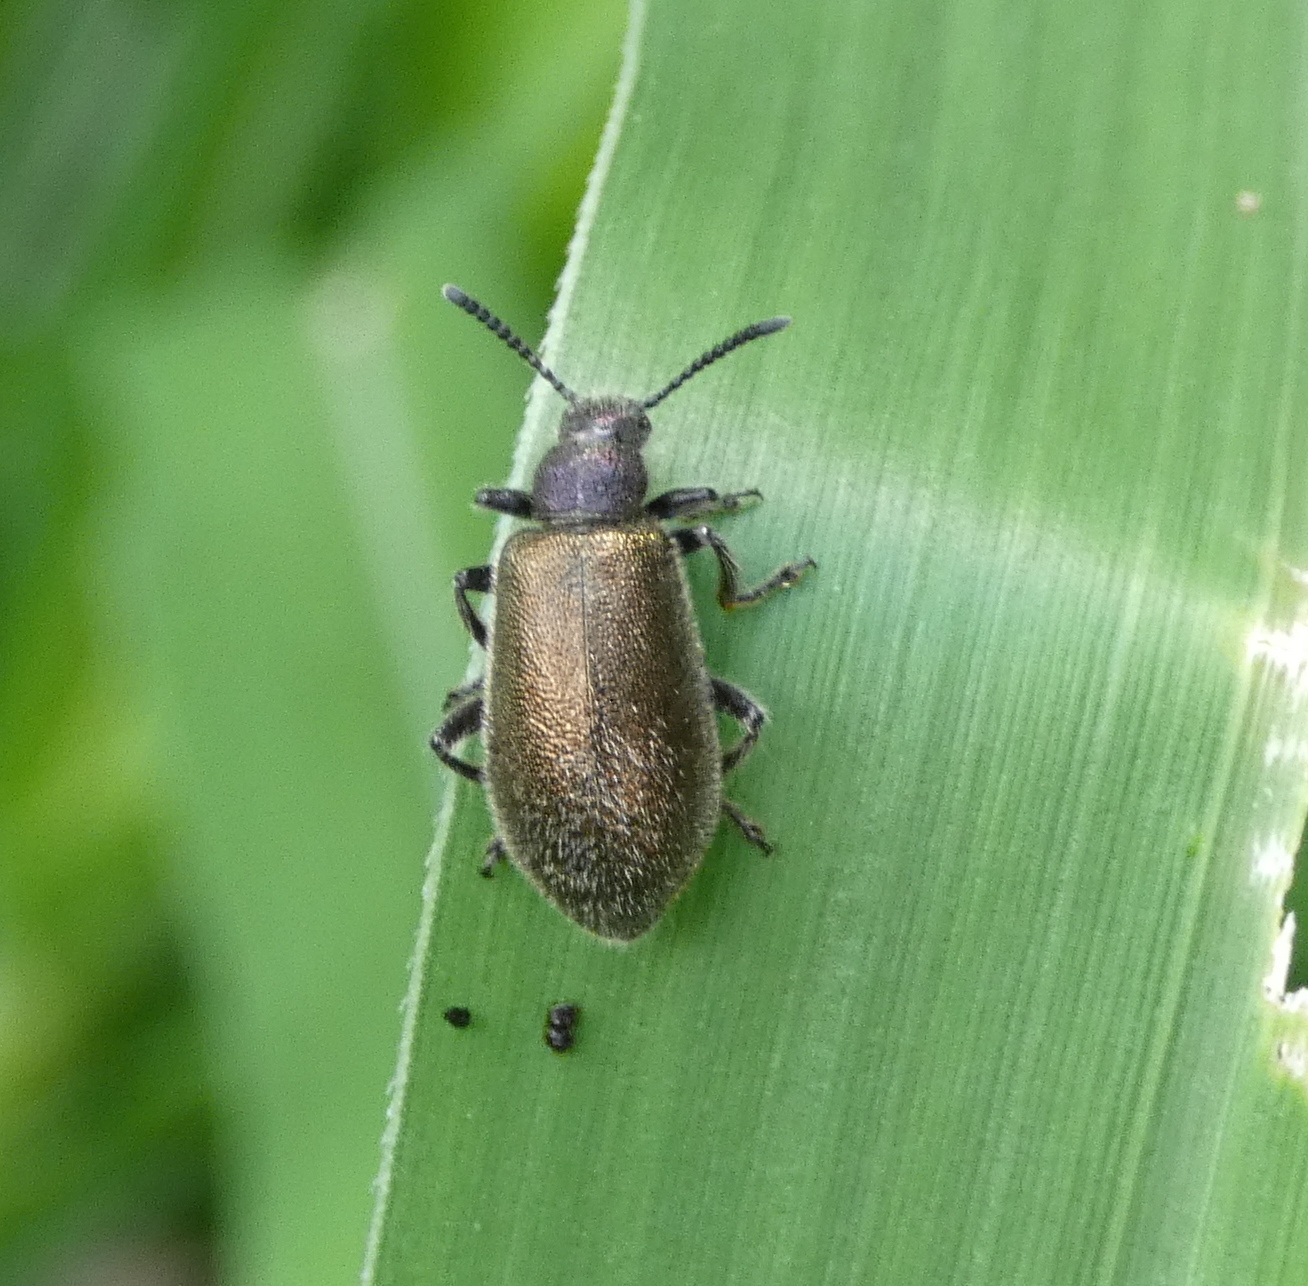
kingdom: Animalia
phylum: Arthropoda
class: Insecta
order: Coleoptera
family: Tenebrionidae
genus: Lagria
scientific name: Lagria villosa
